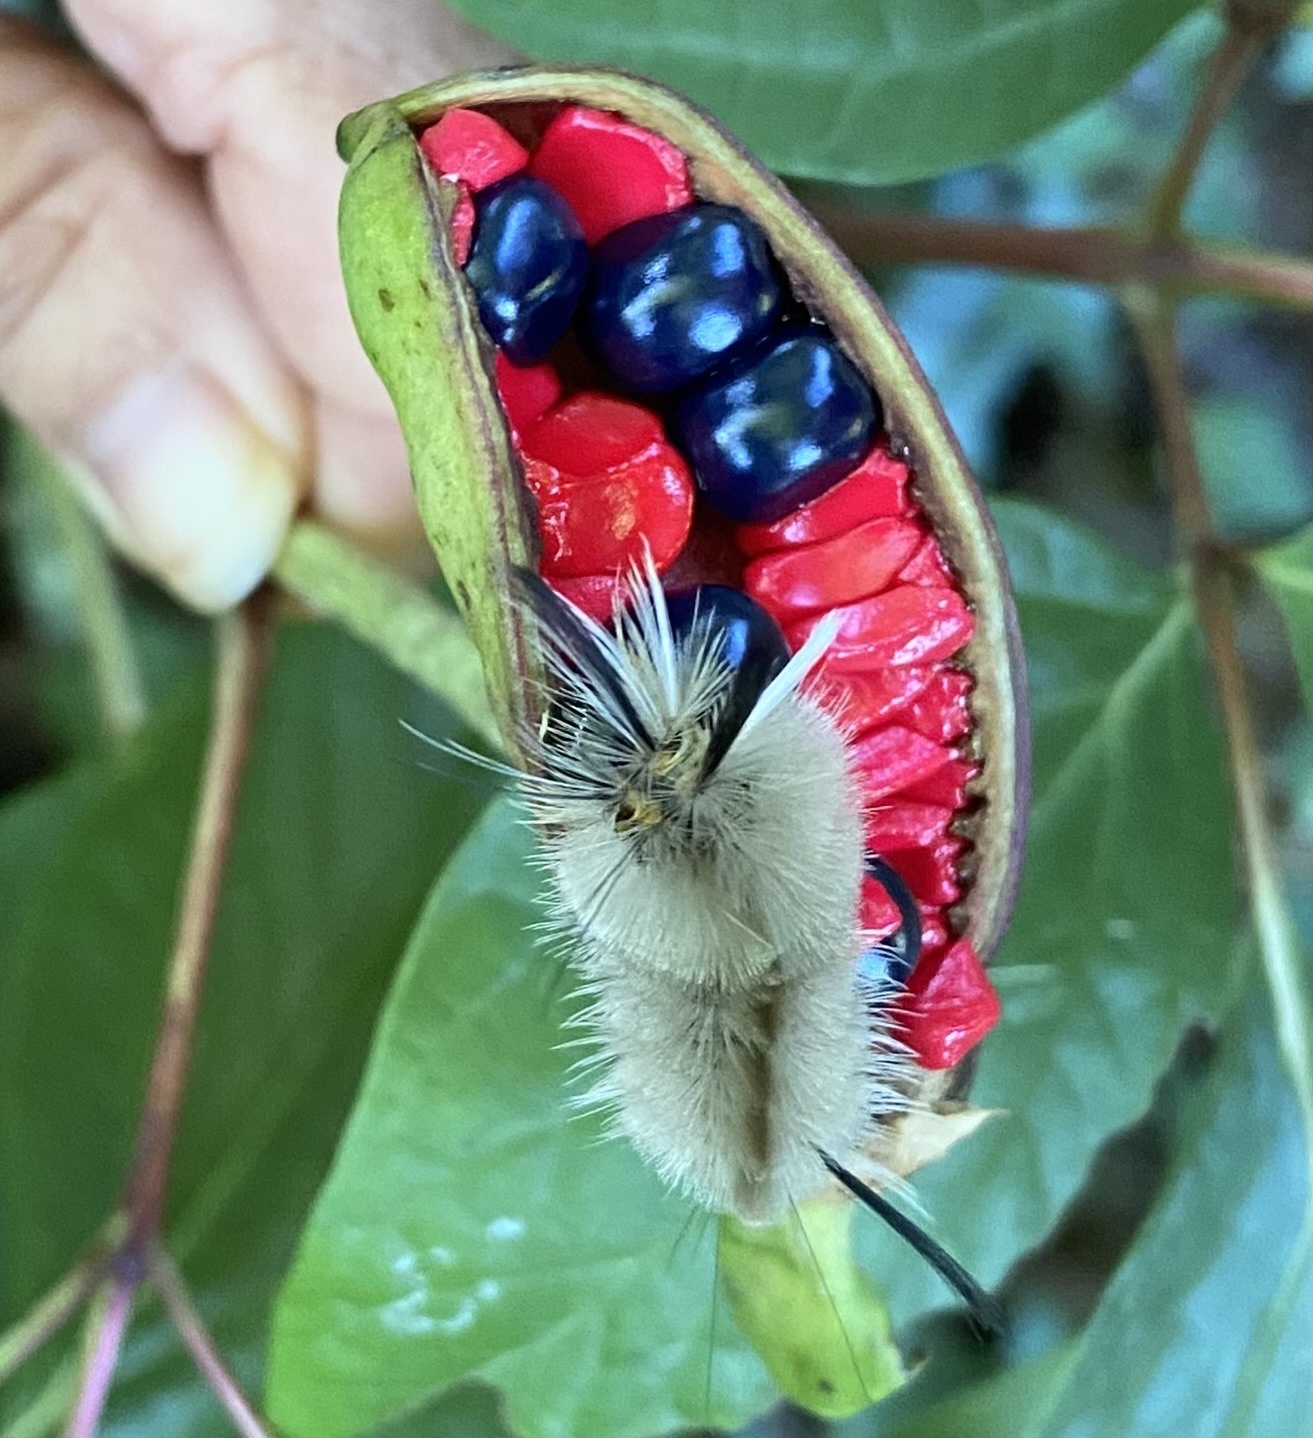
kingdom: Animalia
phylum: Arthropoda
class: Insecta
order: Lepidoptera
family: Erebidae
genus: Halysidota
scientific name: Halysidota tessellaris
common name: Banded tussock moth
